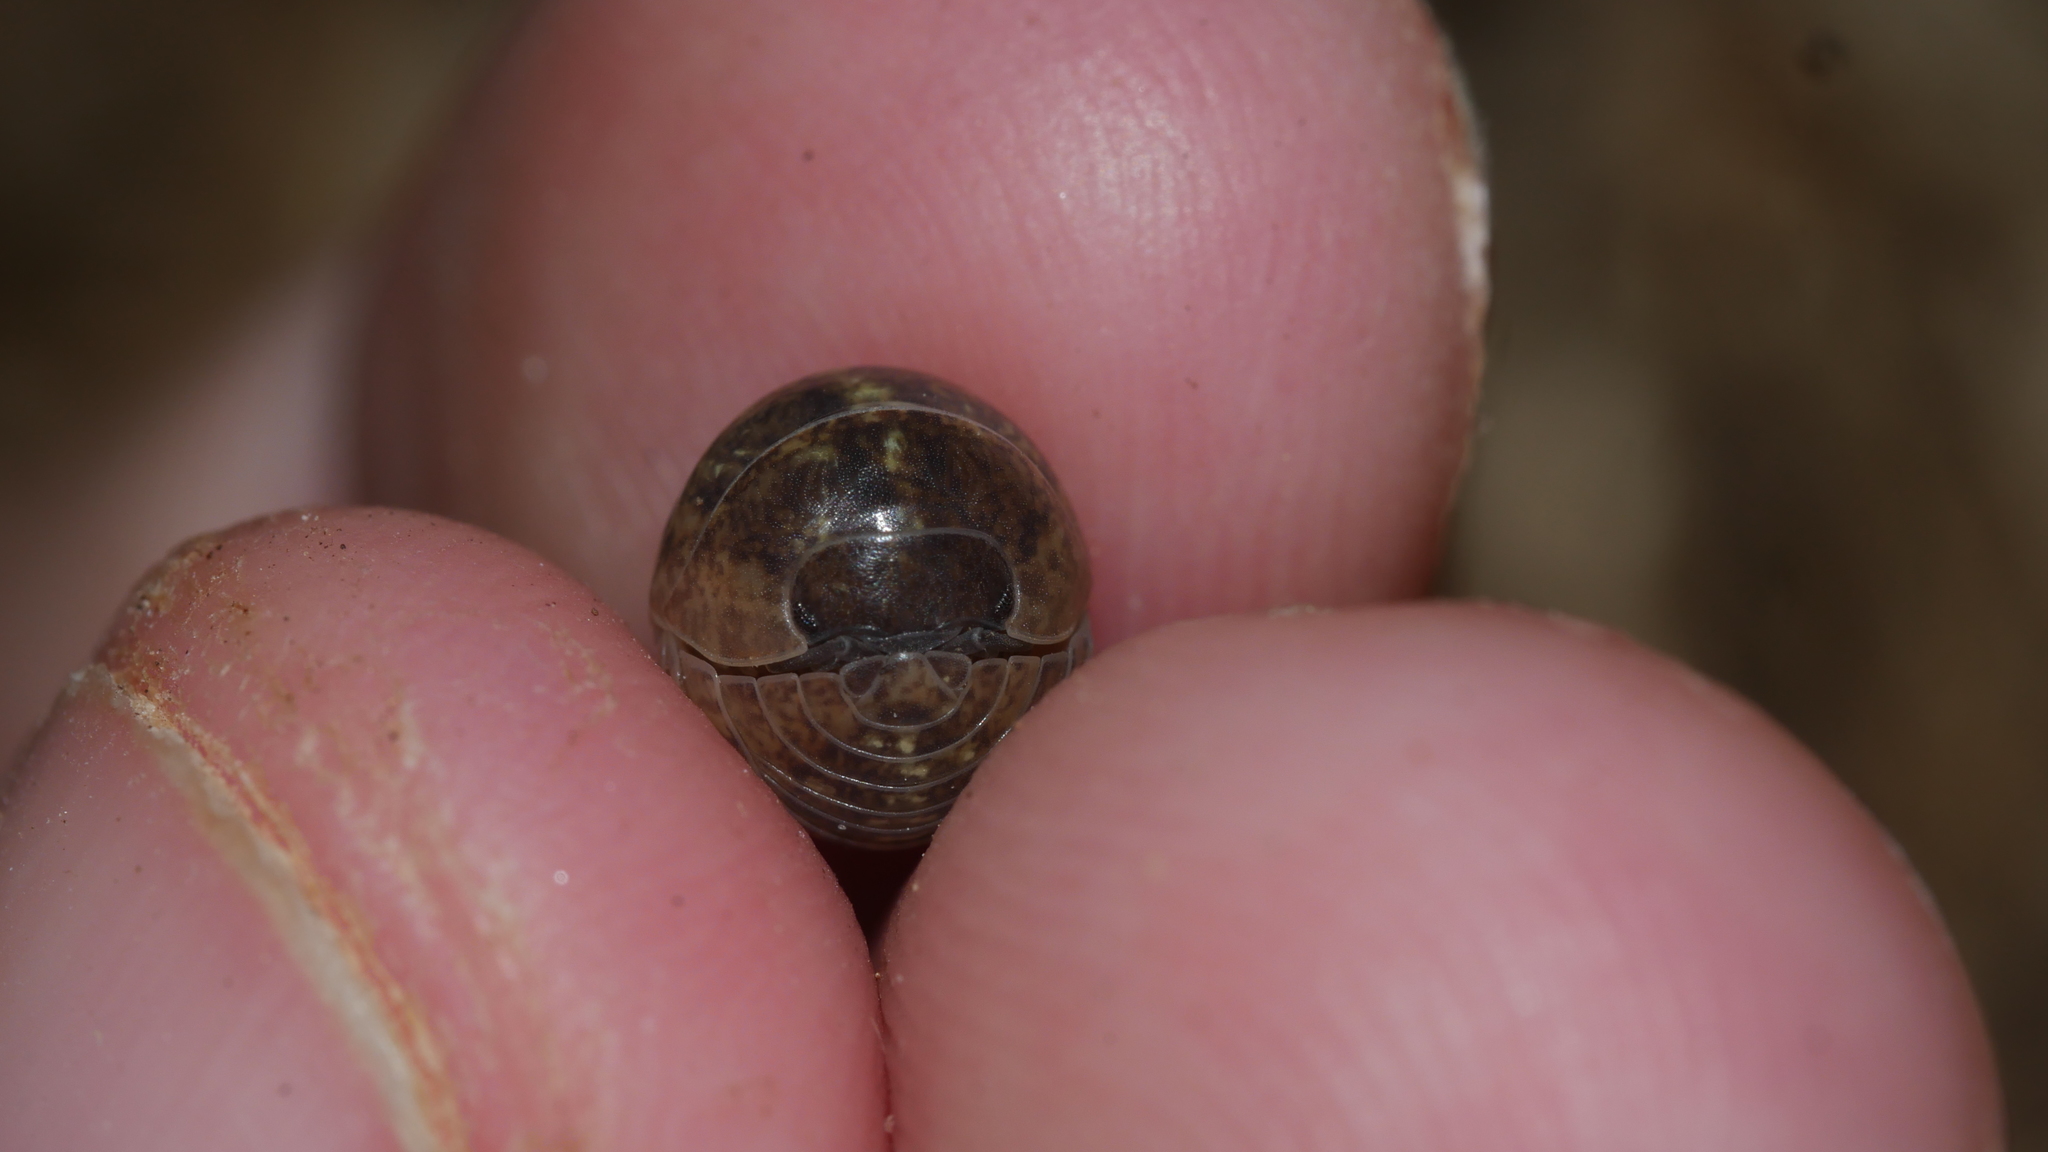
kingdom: Animalia
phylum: Arthropoda
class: Malacostraca
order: Isopoda
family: Armadillidiidae
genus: Armadillidium
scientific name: Armadillidium vulgare
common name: Common pill woodlouse
